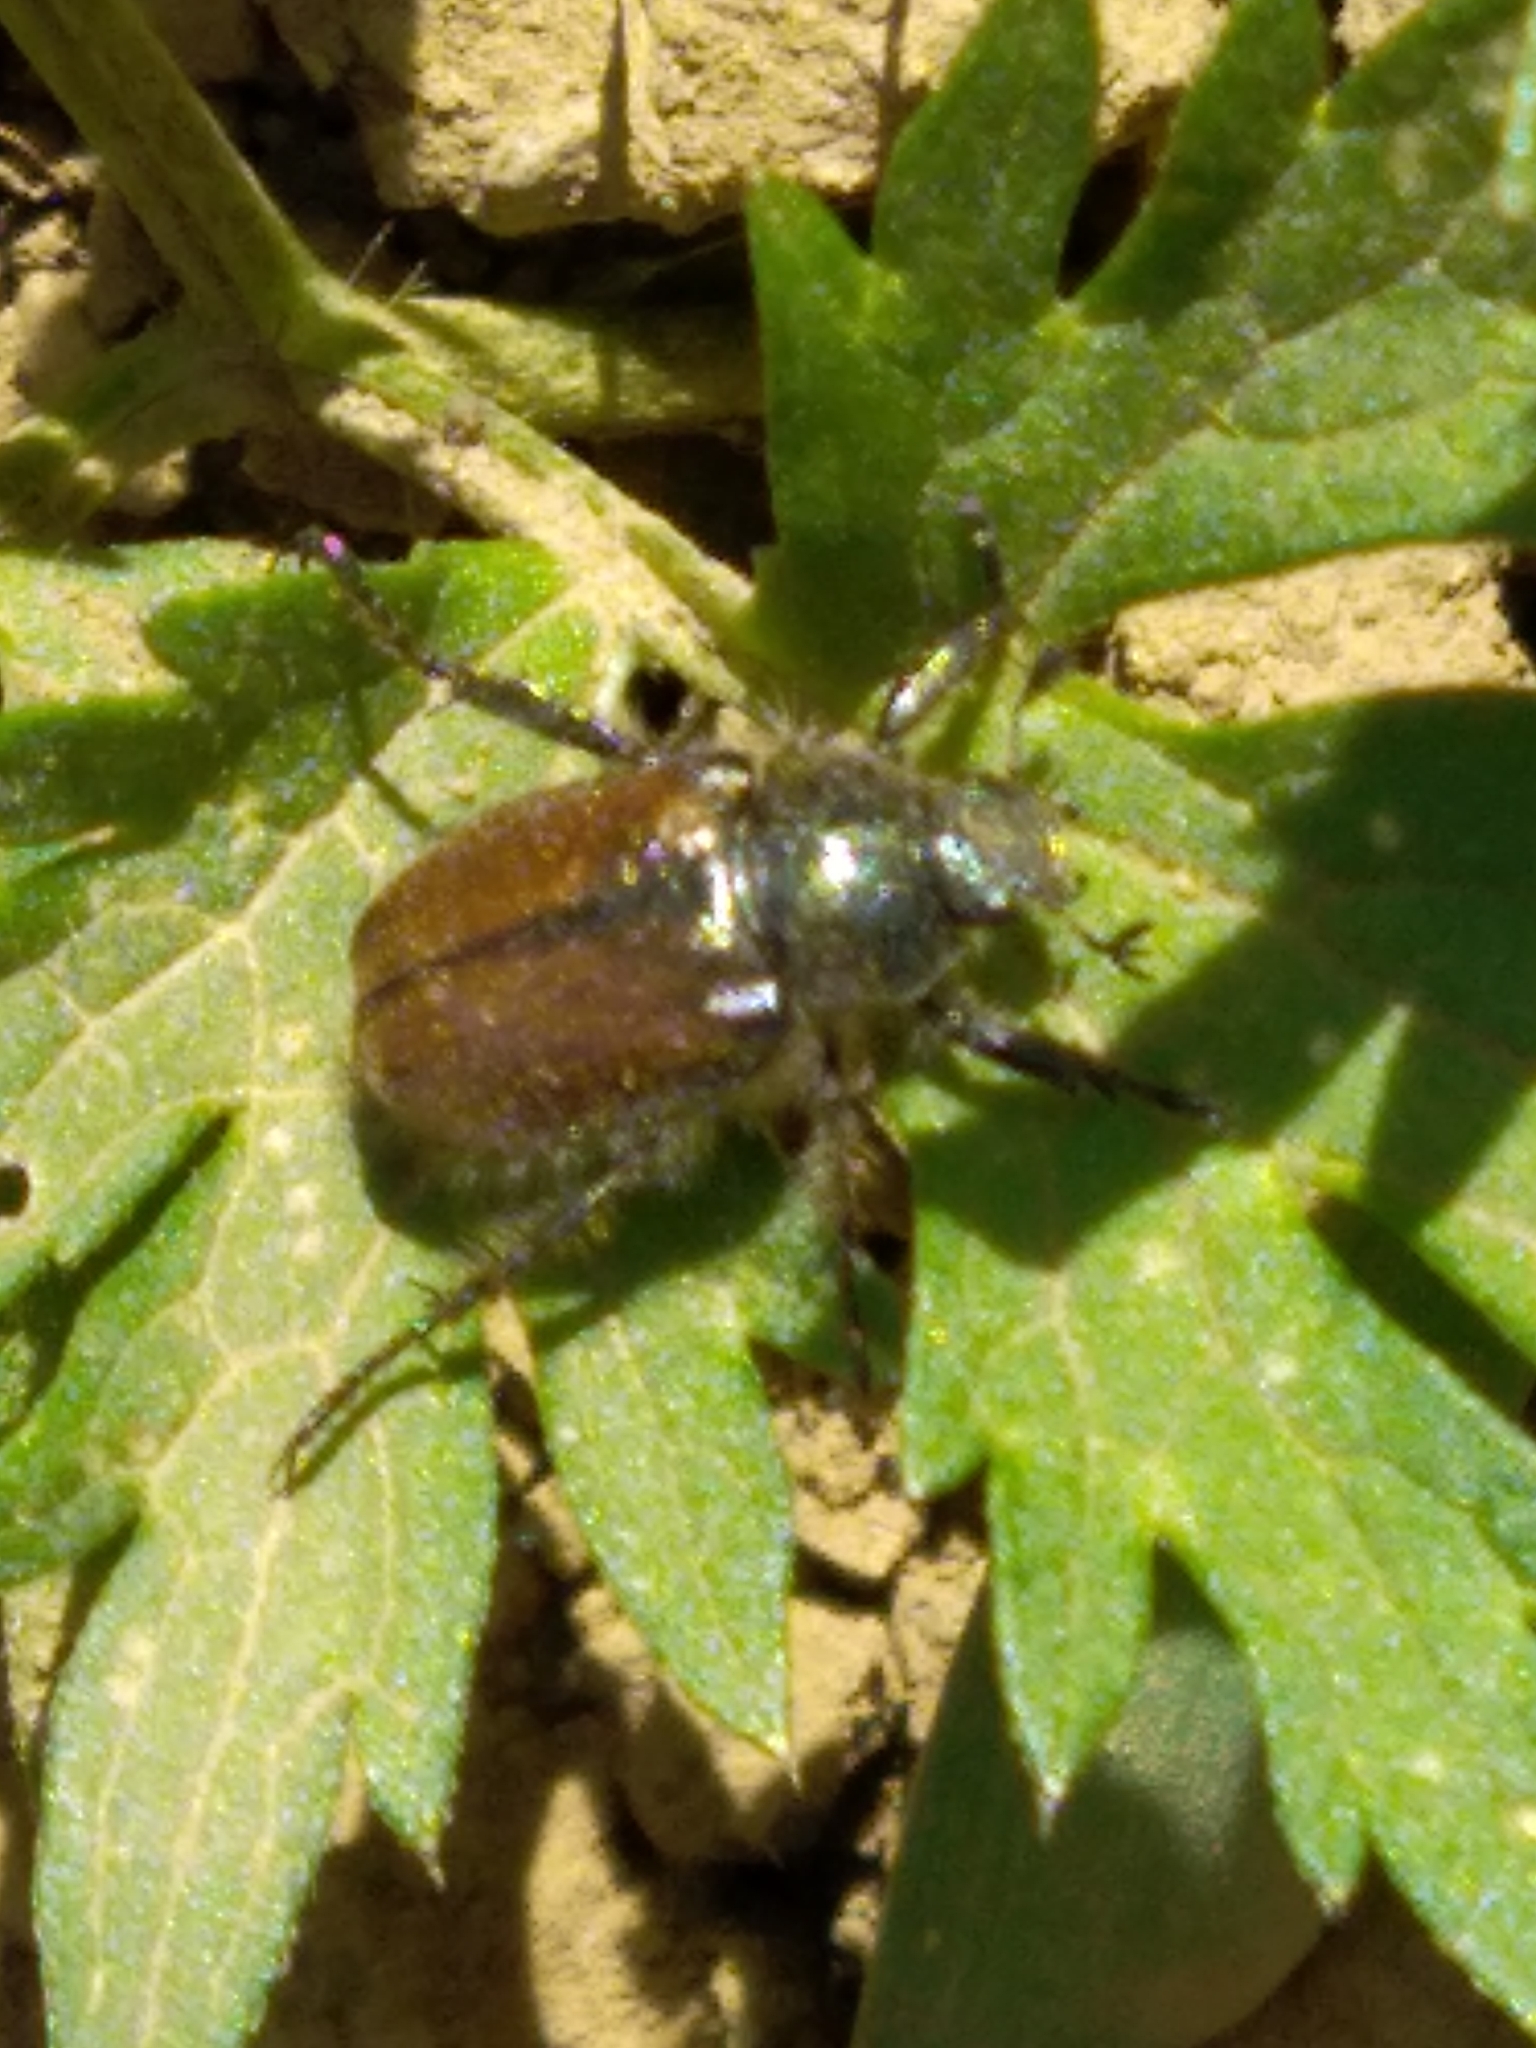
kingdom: Animalia
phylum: Arthropoda
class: Insecta
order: Coleoptera
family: Scarabaeidae
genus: Phyllopertha
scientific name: Phyllopertha horticola
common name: Garden chafer
